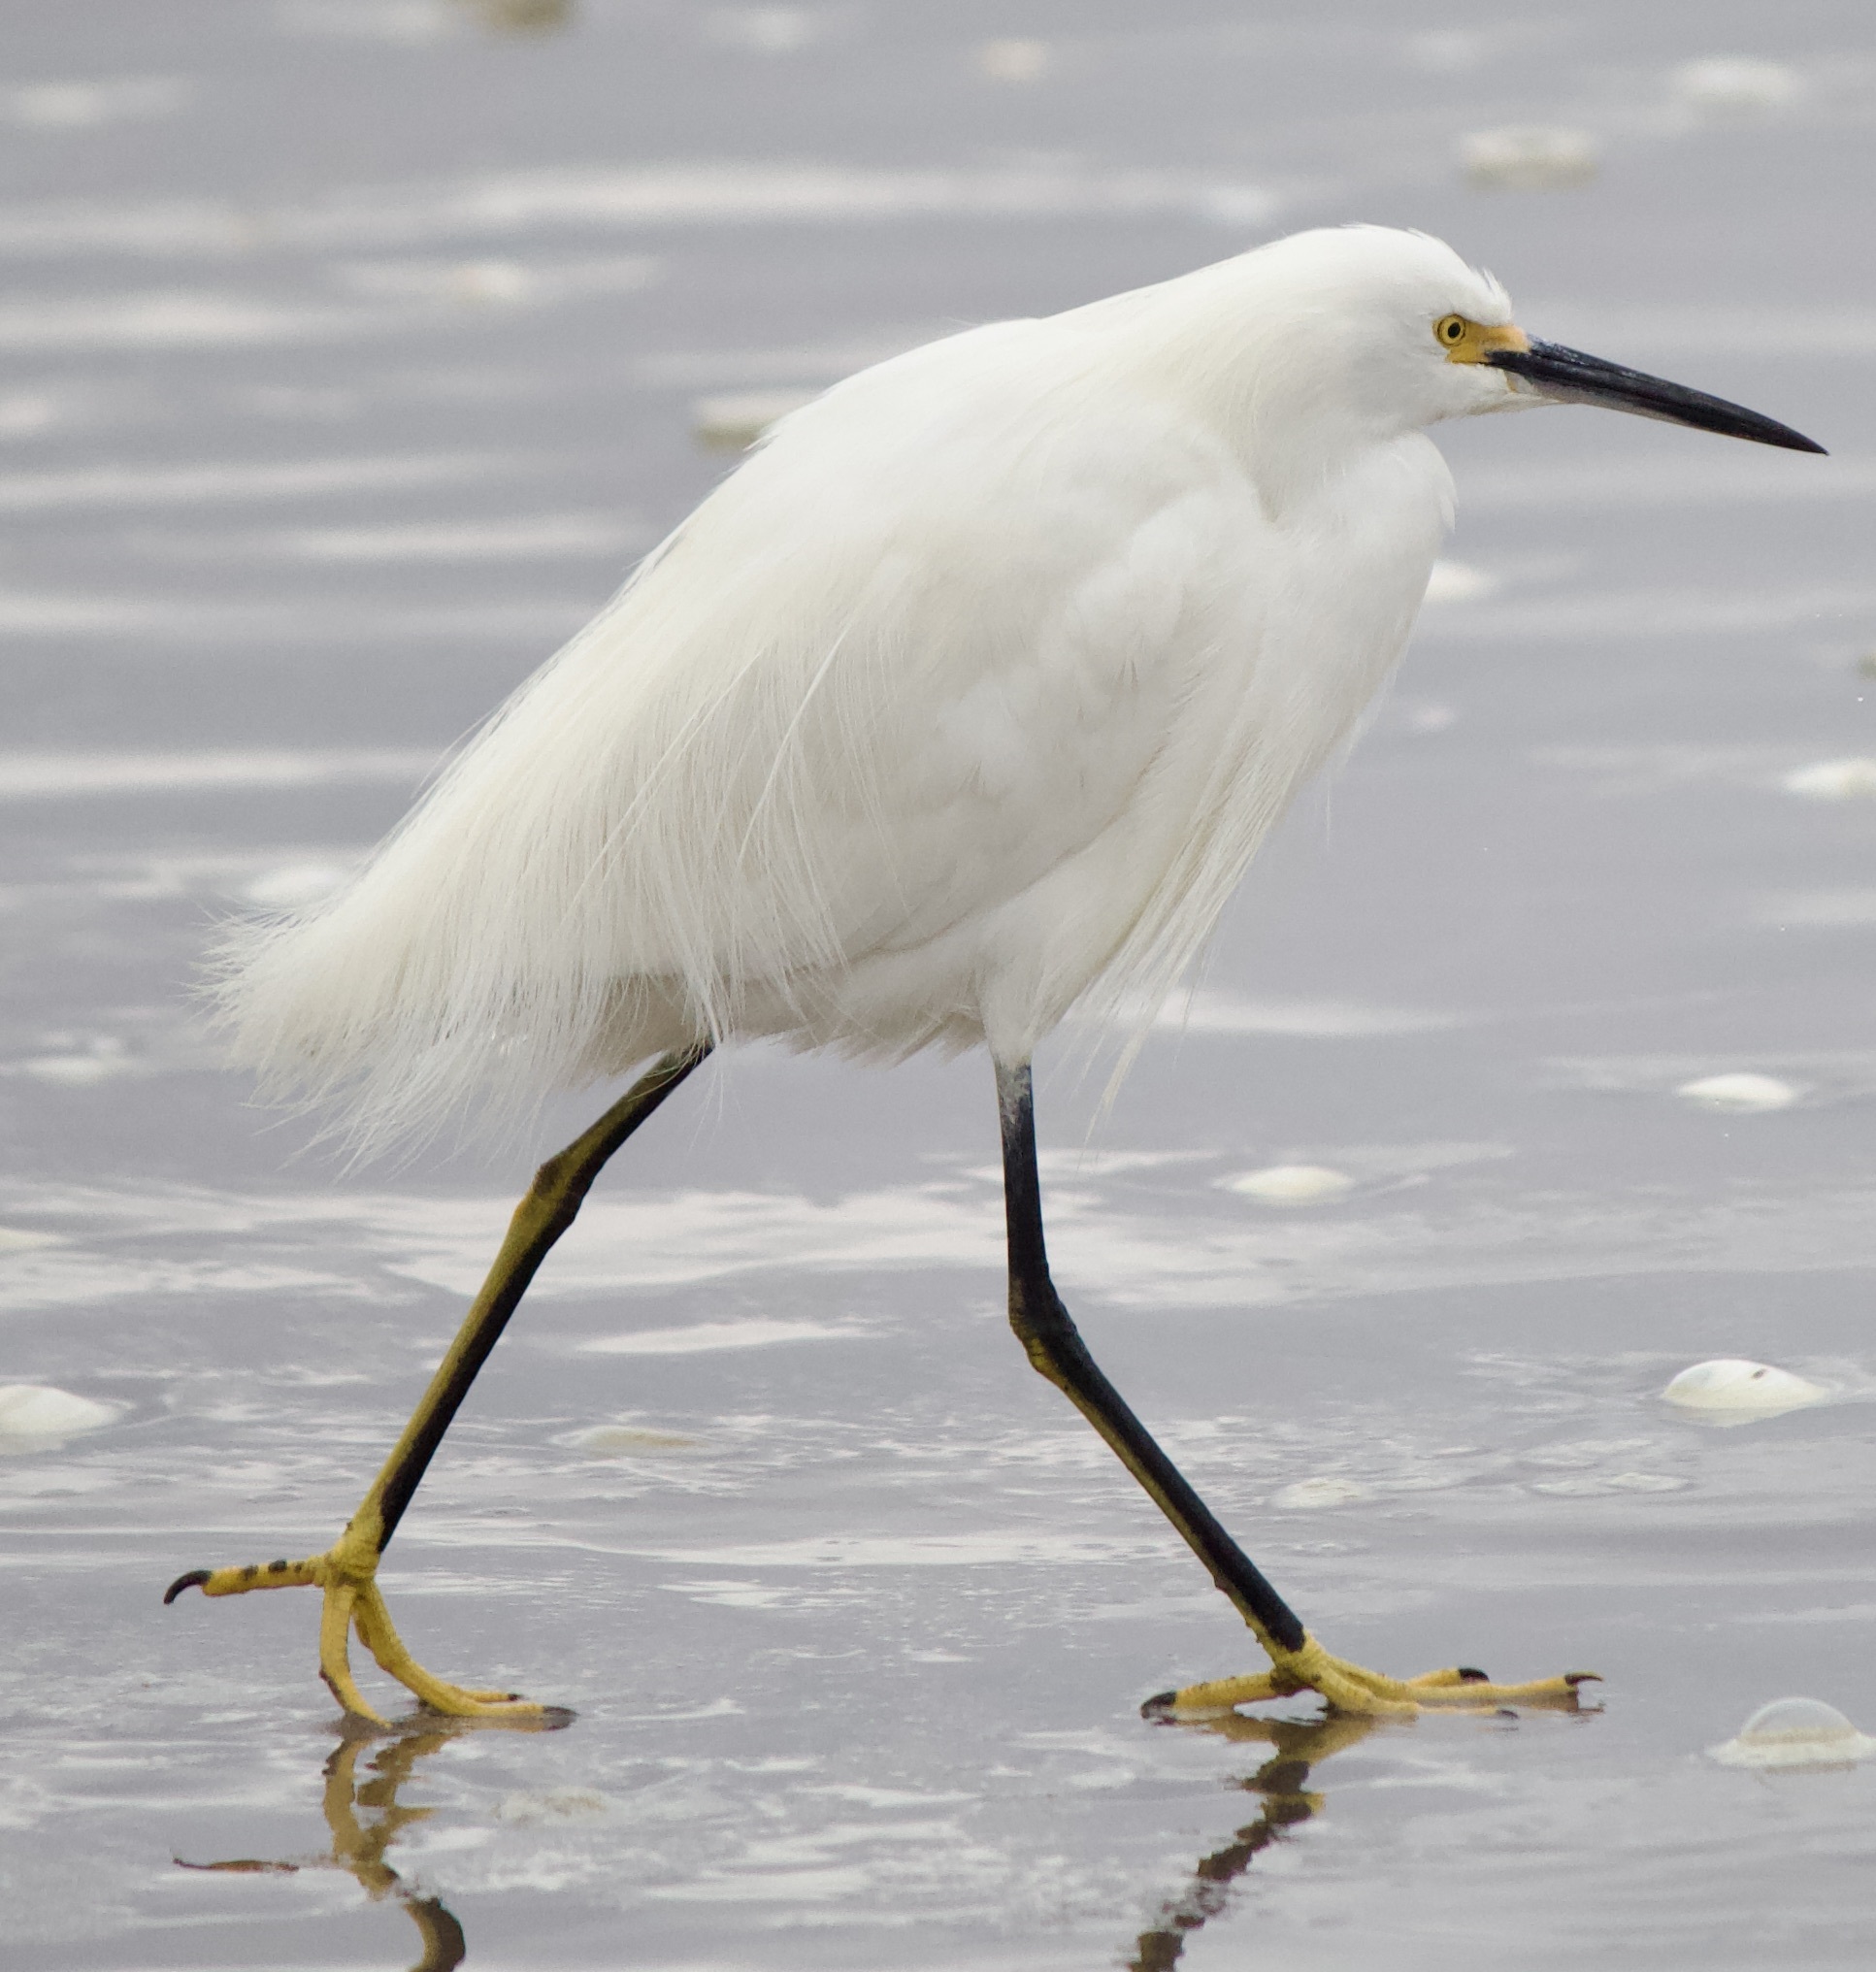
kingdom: Animalia
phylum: Chordata
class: Aves
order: Pelecaniformes
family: Ardeidae
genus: Egretta
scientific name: Egretta thula
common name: Snowy egret
